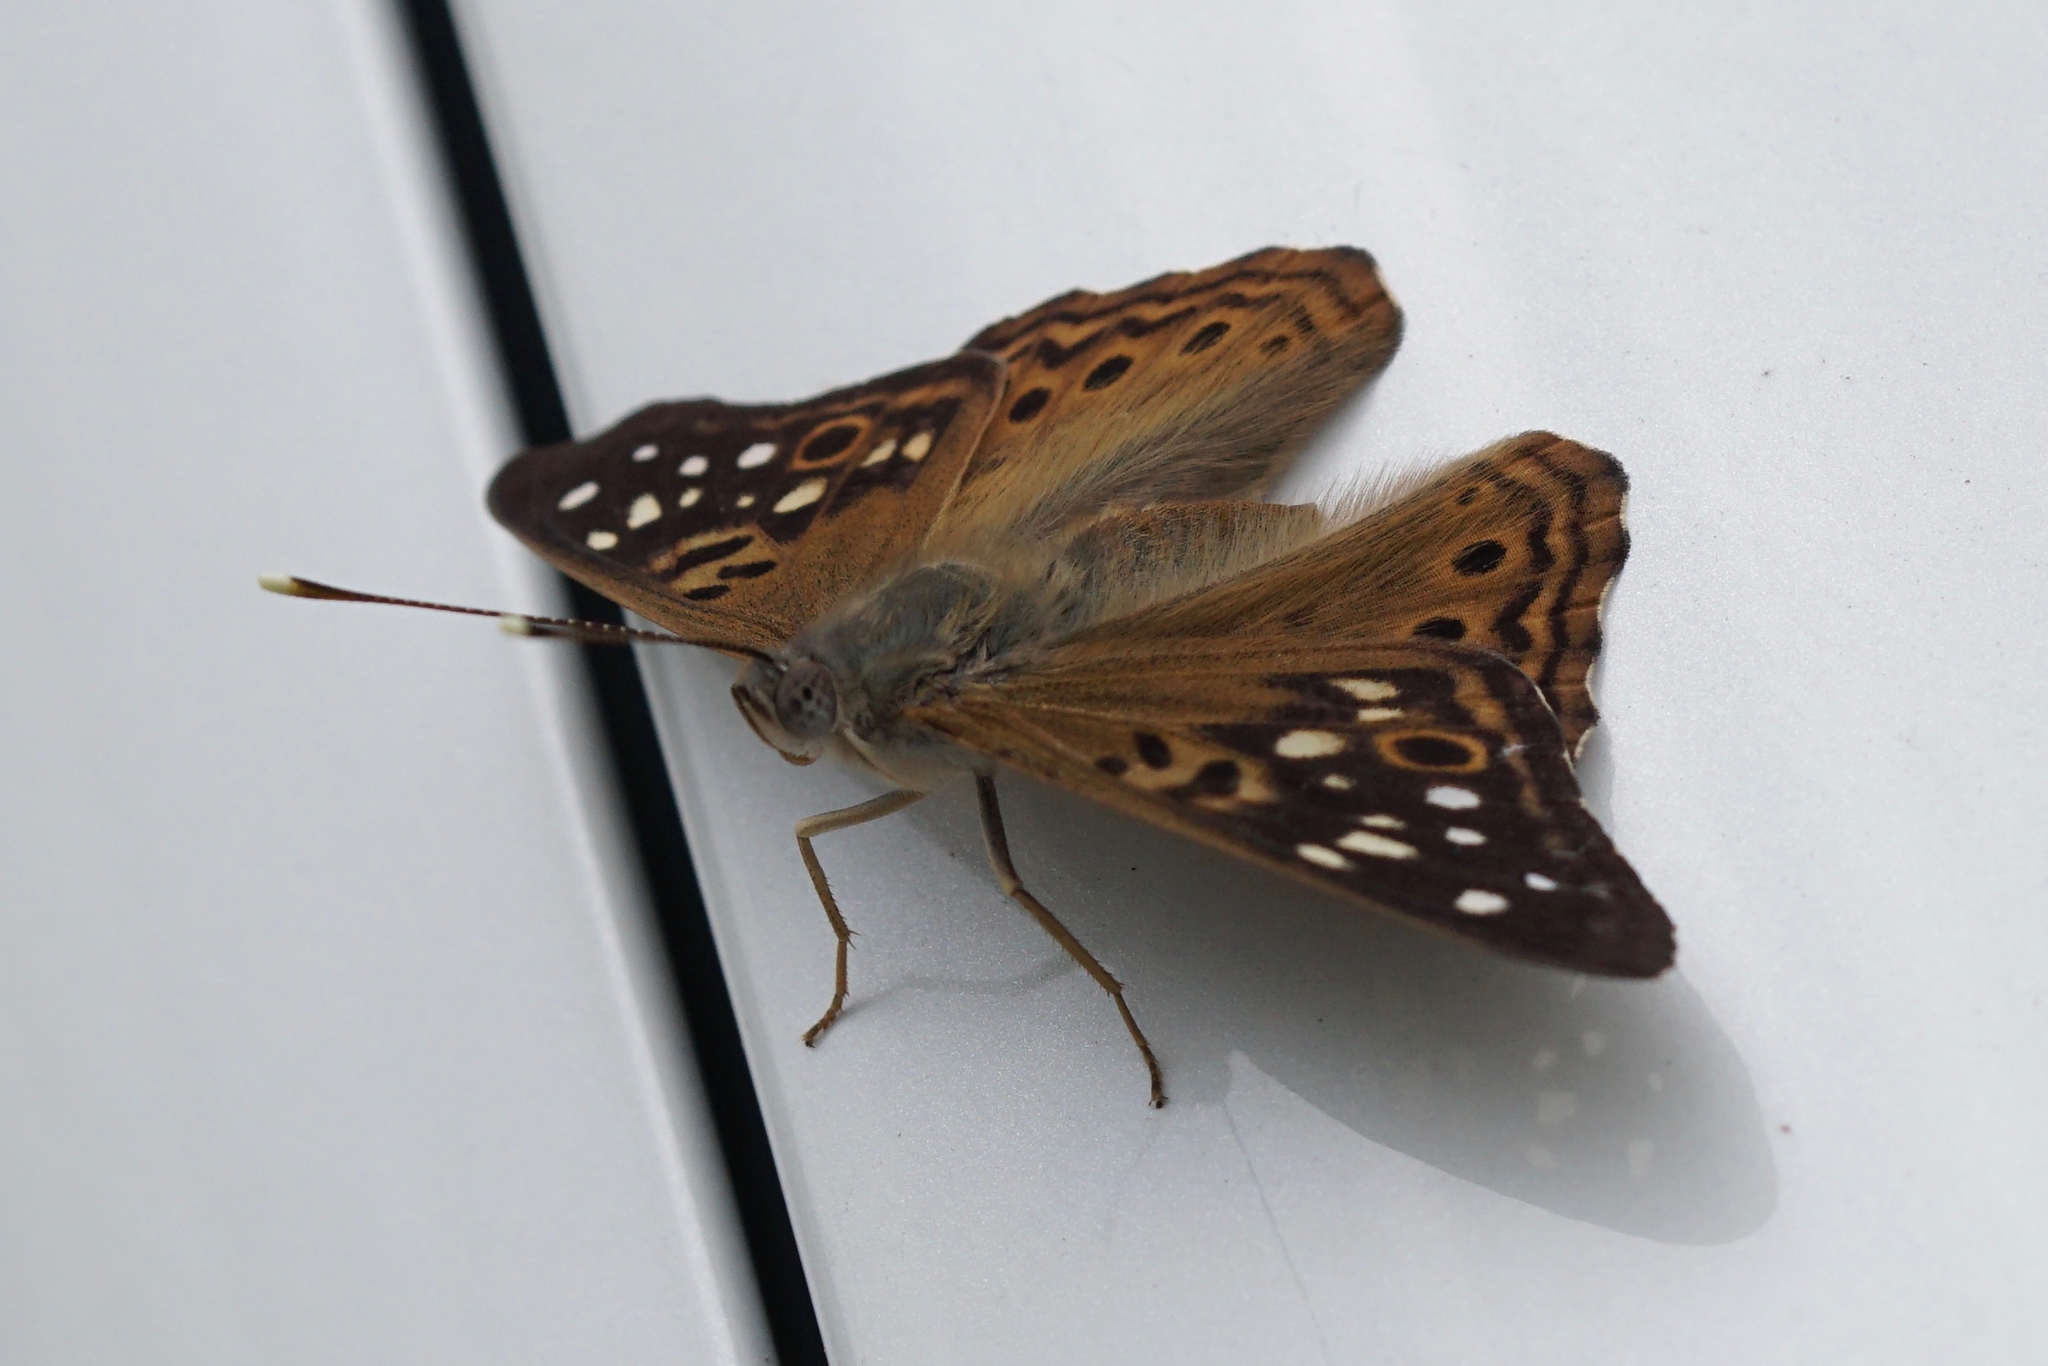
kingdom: Animalia
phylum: Arthropoda
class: Insecta
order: Lepidoptera
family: Nymphalidae
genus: Asterocampa
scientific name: Asterocampa celtis
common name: Hackberry emperor
